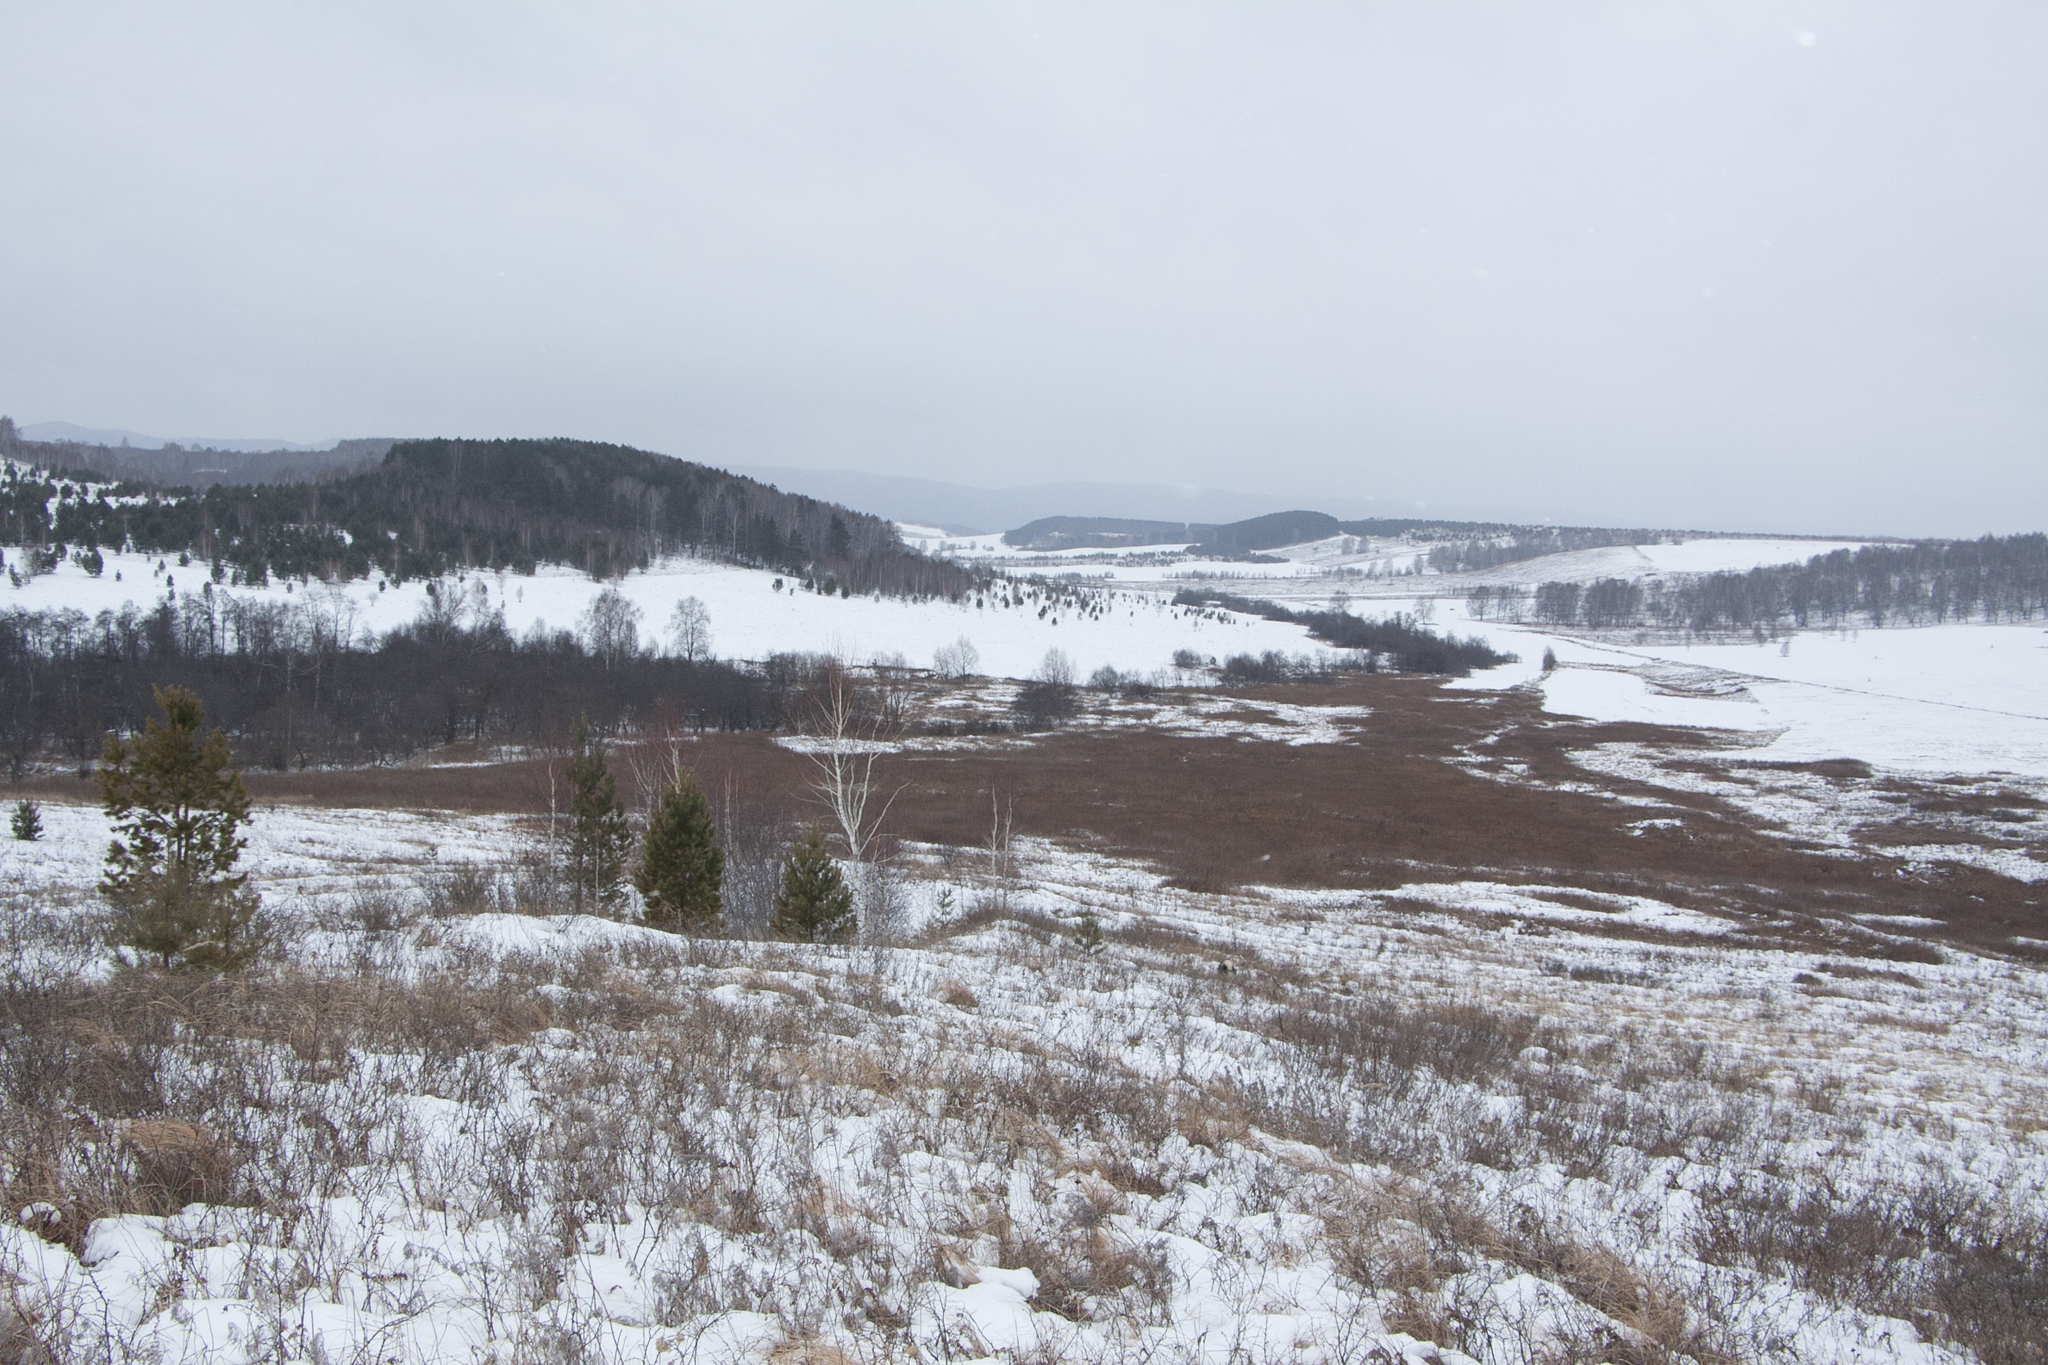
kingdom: Plantae
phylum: Tracheophyta
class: Pinopsida
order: Pinales
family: Pinaceae
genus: Pinus
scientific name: Pinus sylvestris
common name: Scots pine
